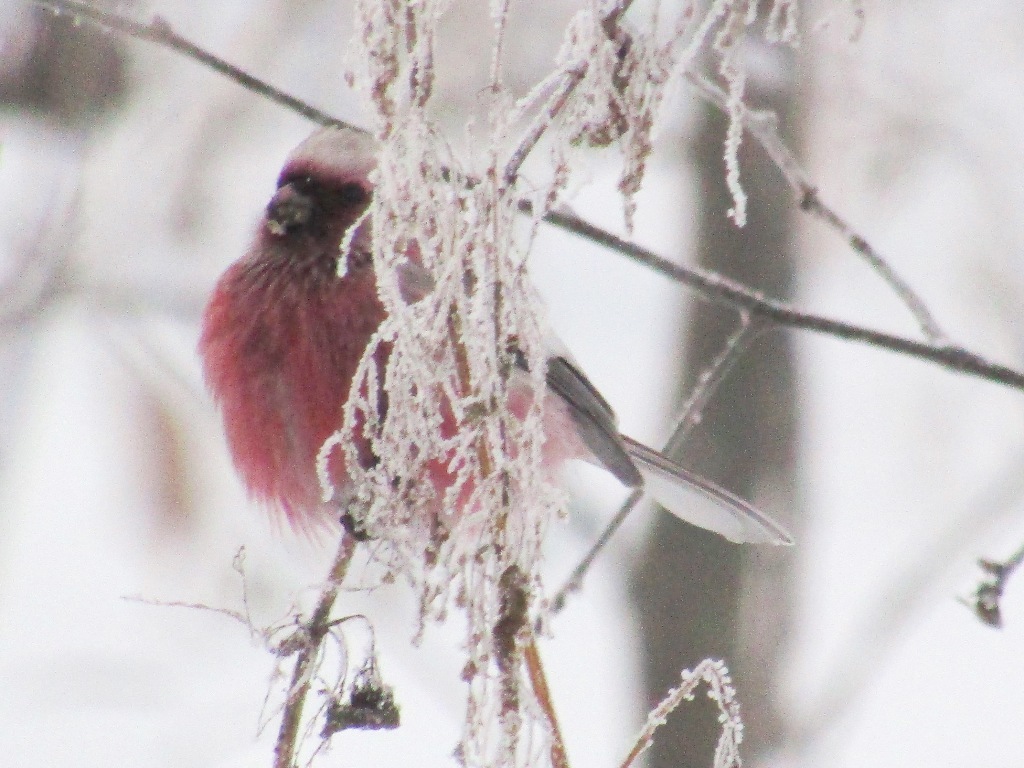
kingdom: Animalia
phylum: Chordata
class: Aves
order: Passeriformes
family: Fringillidae
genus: Carpodacus
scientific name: Carpodacus sibiricus
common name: Long-tailed rosefinch
